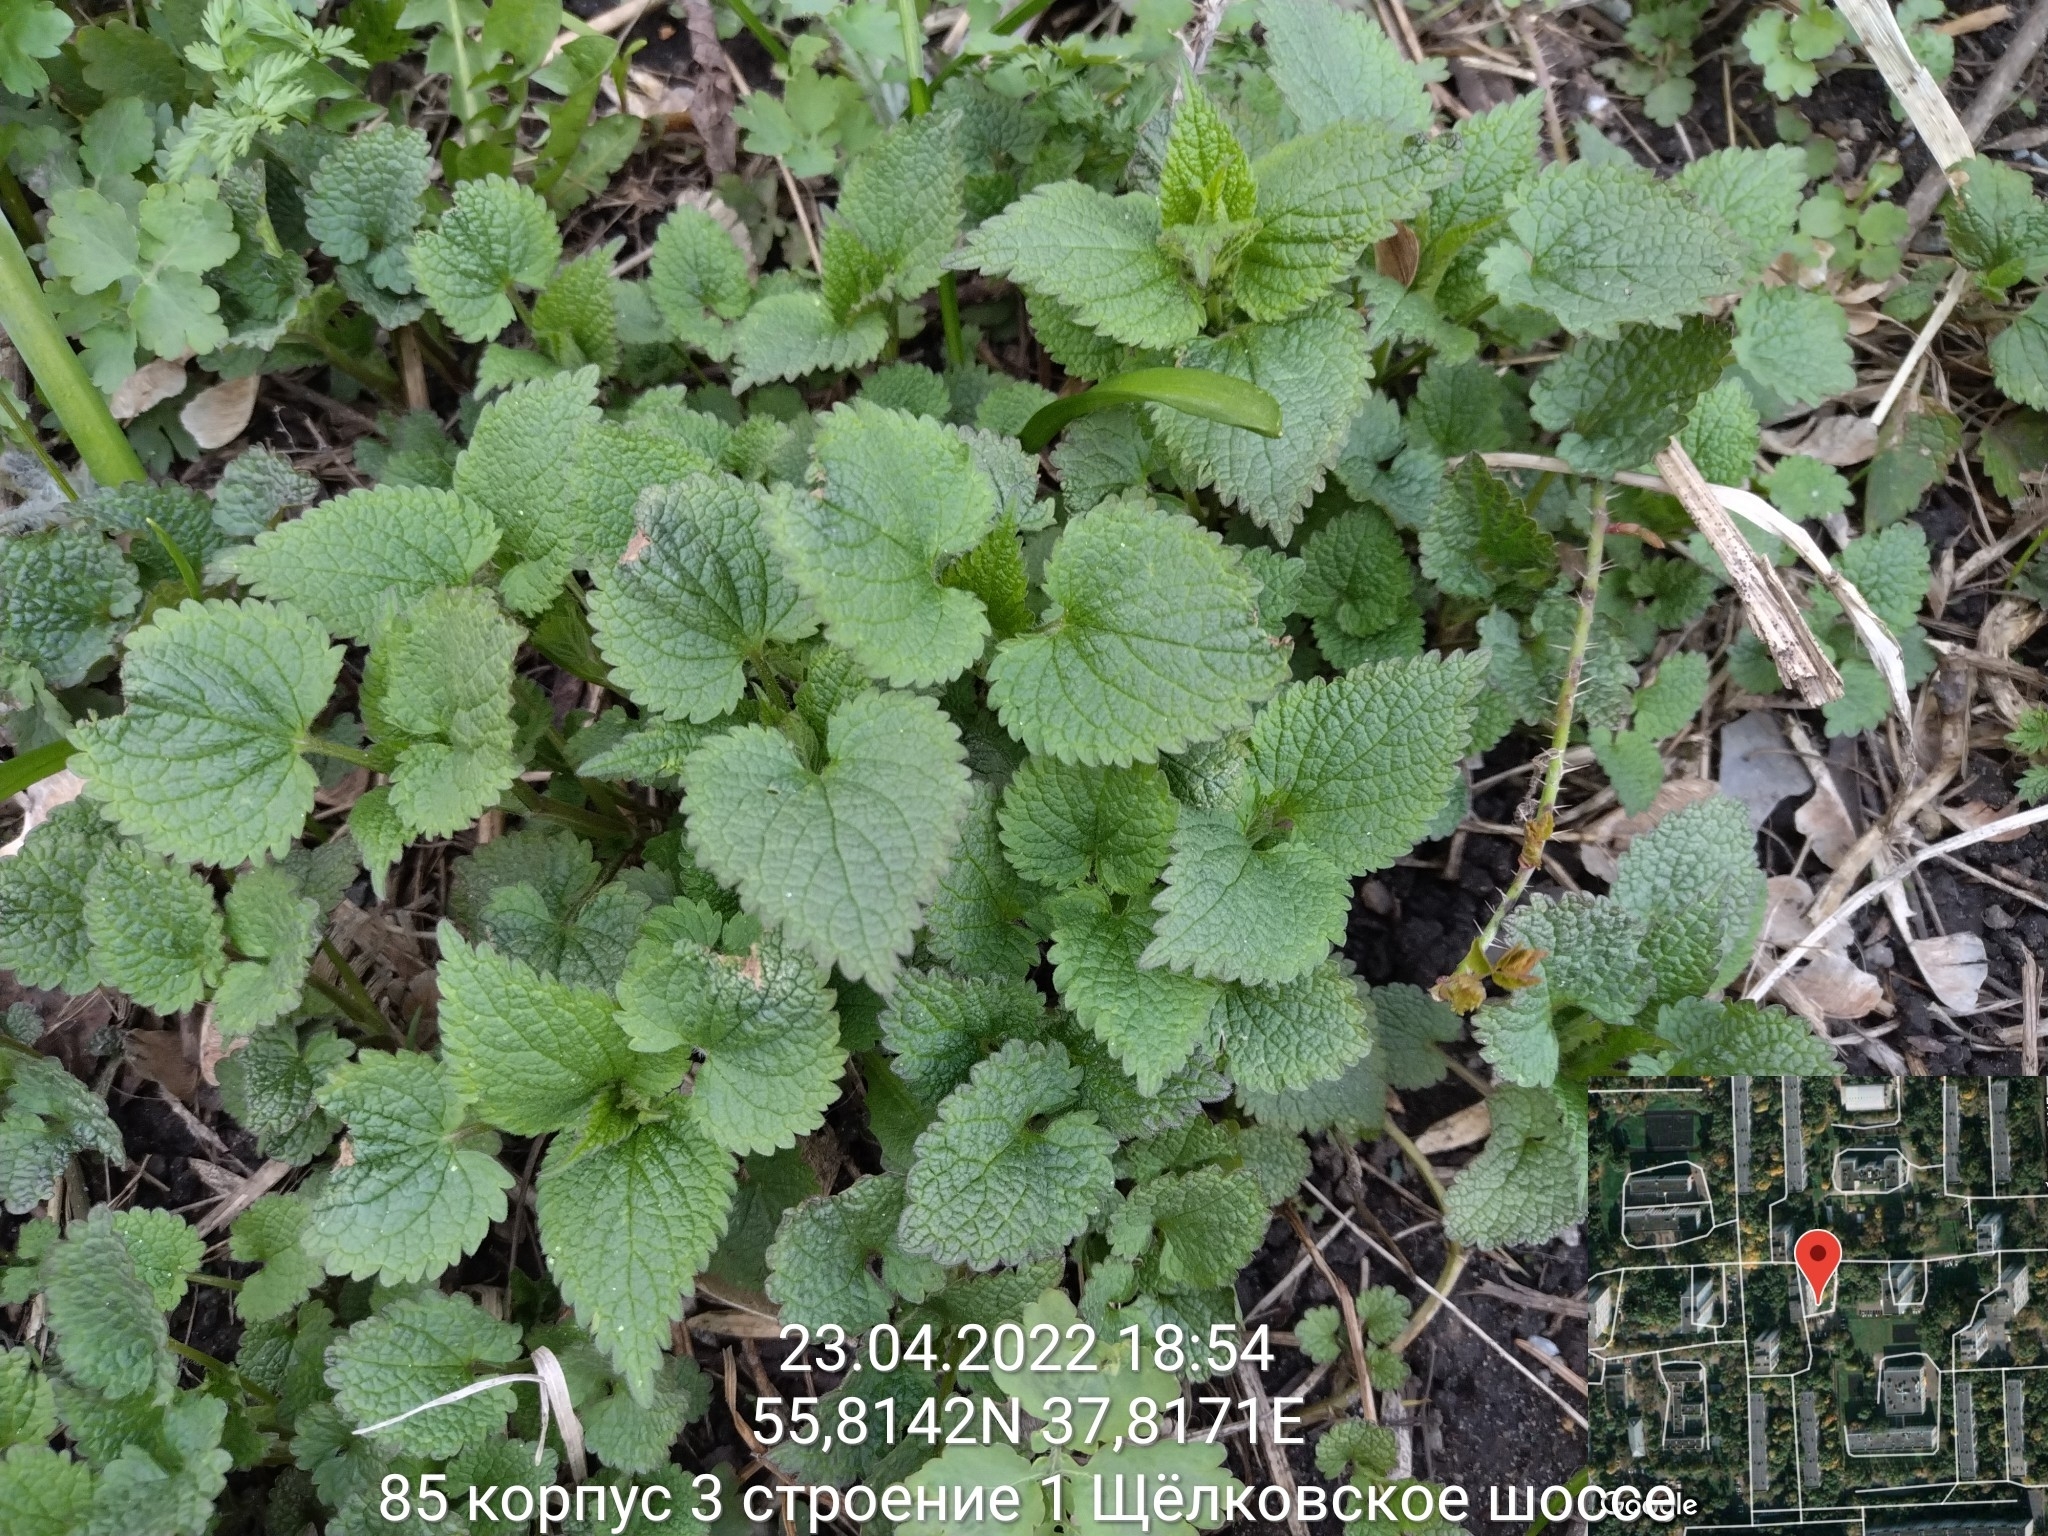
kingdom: Plantae
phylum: Tracheophyta
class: Magnoliopsida
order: Lamiales
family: Lamiaceae
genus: Lamium
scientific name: Lamium album
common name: White dead-nettle
